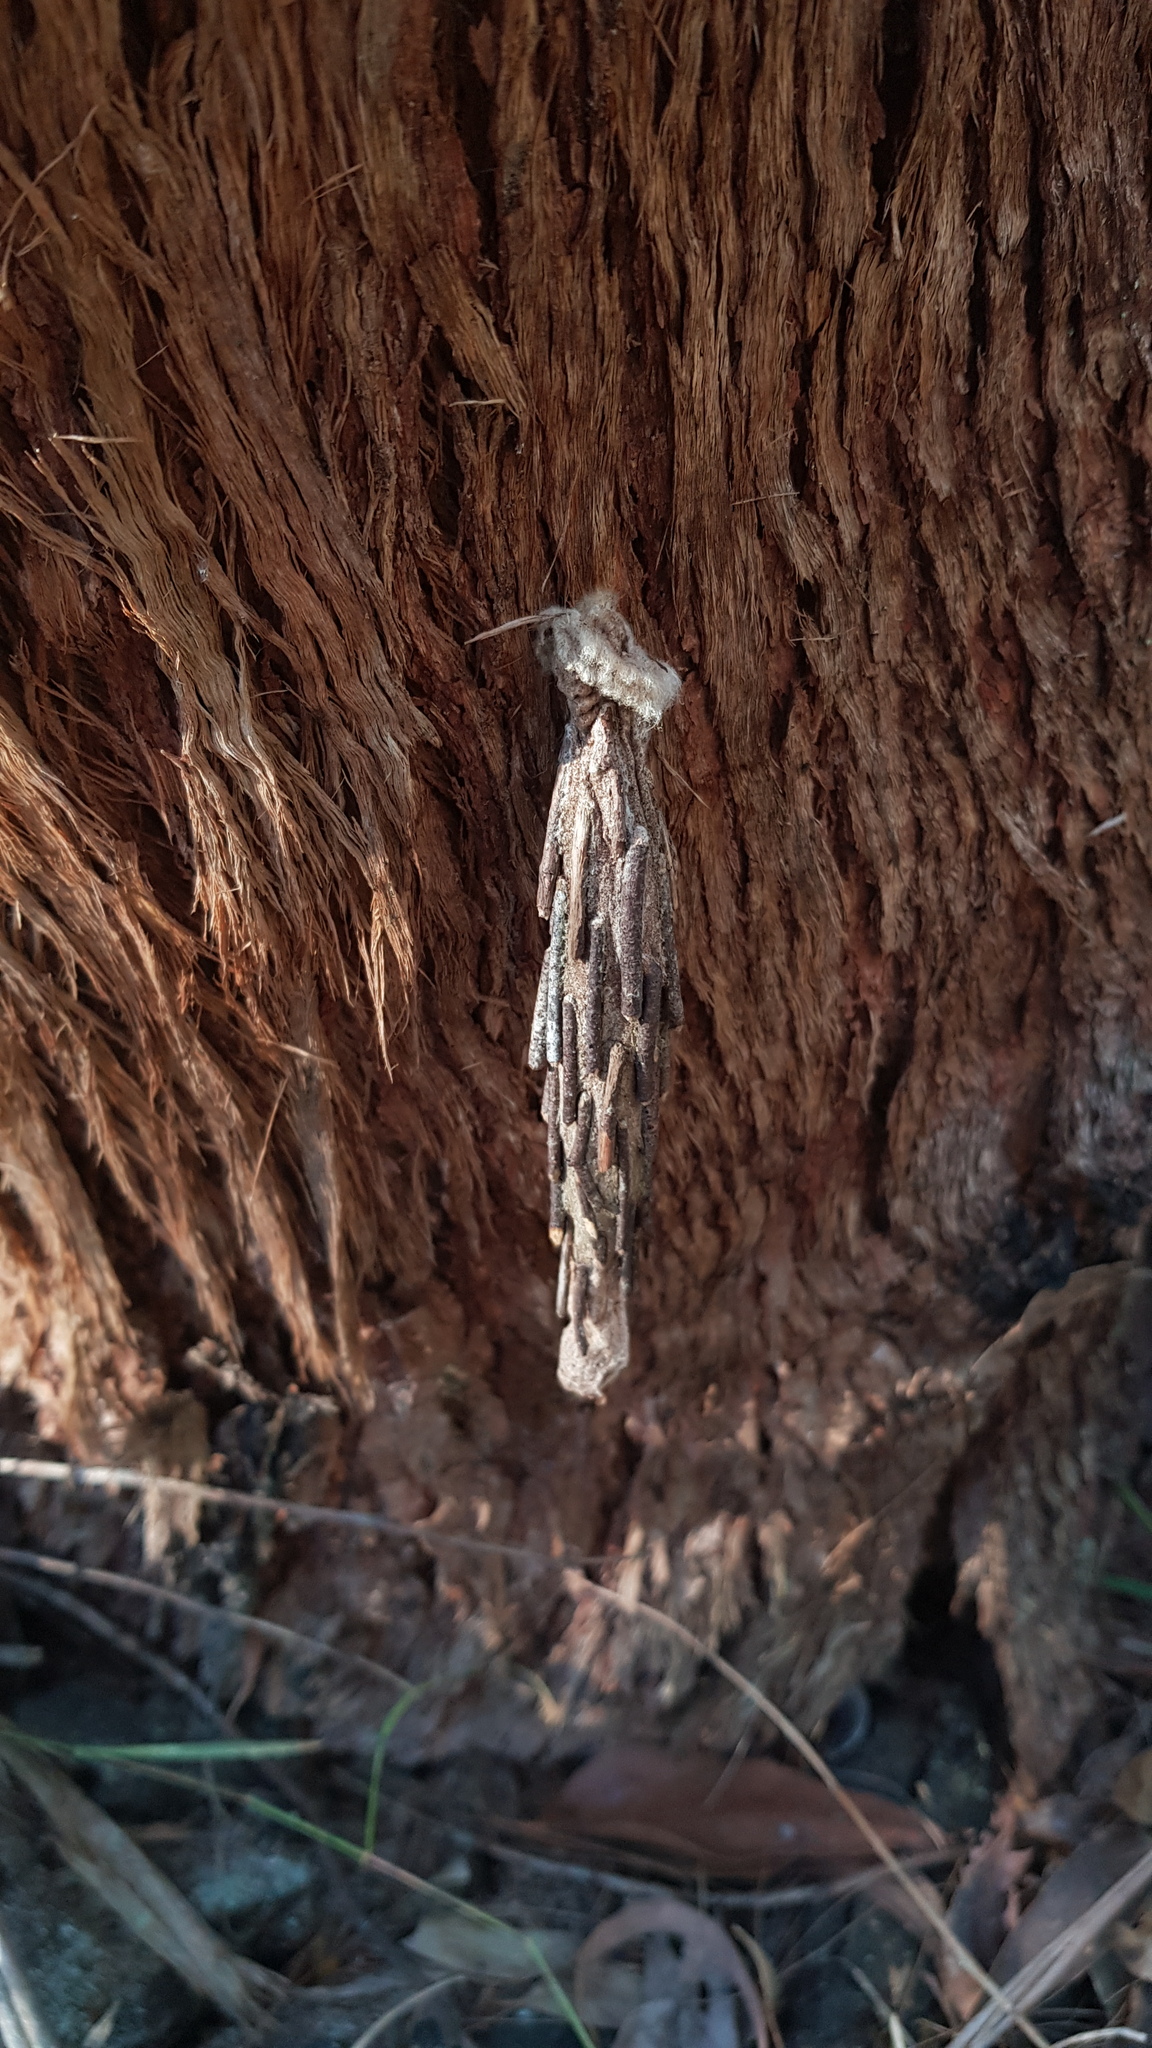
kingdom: Animalia
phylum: Arthropoda
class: Insecta
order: Lepidoptera
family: Psychidae
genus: Metura
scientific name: Metura elongatus
